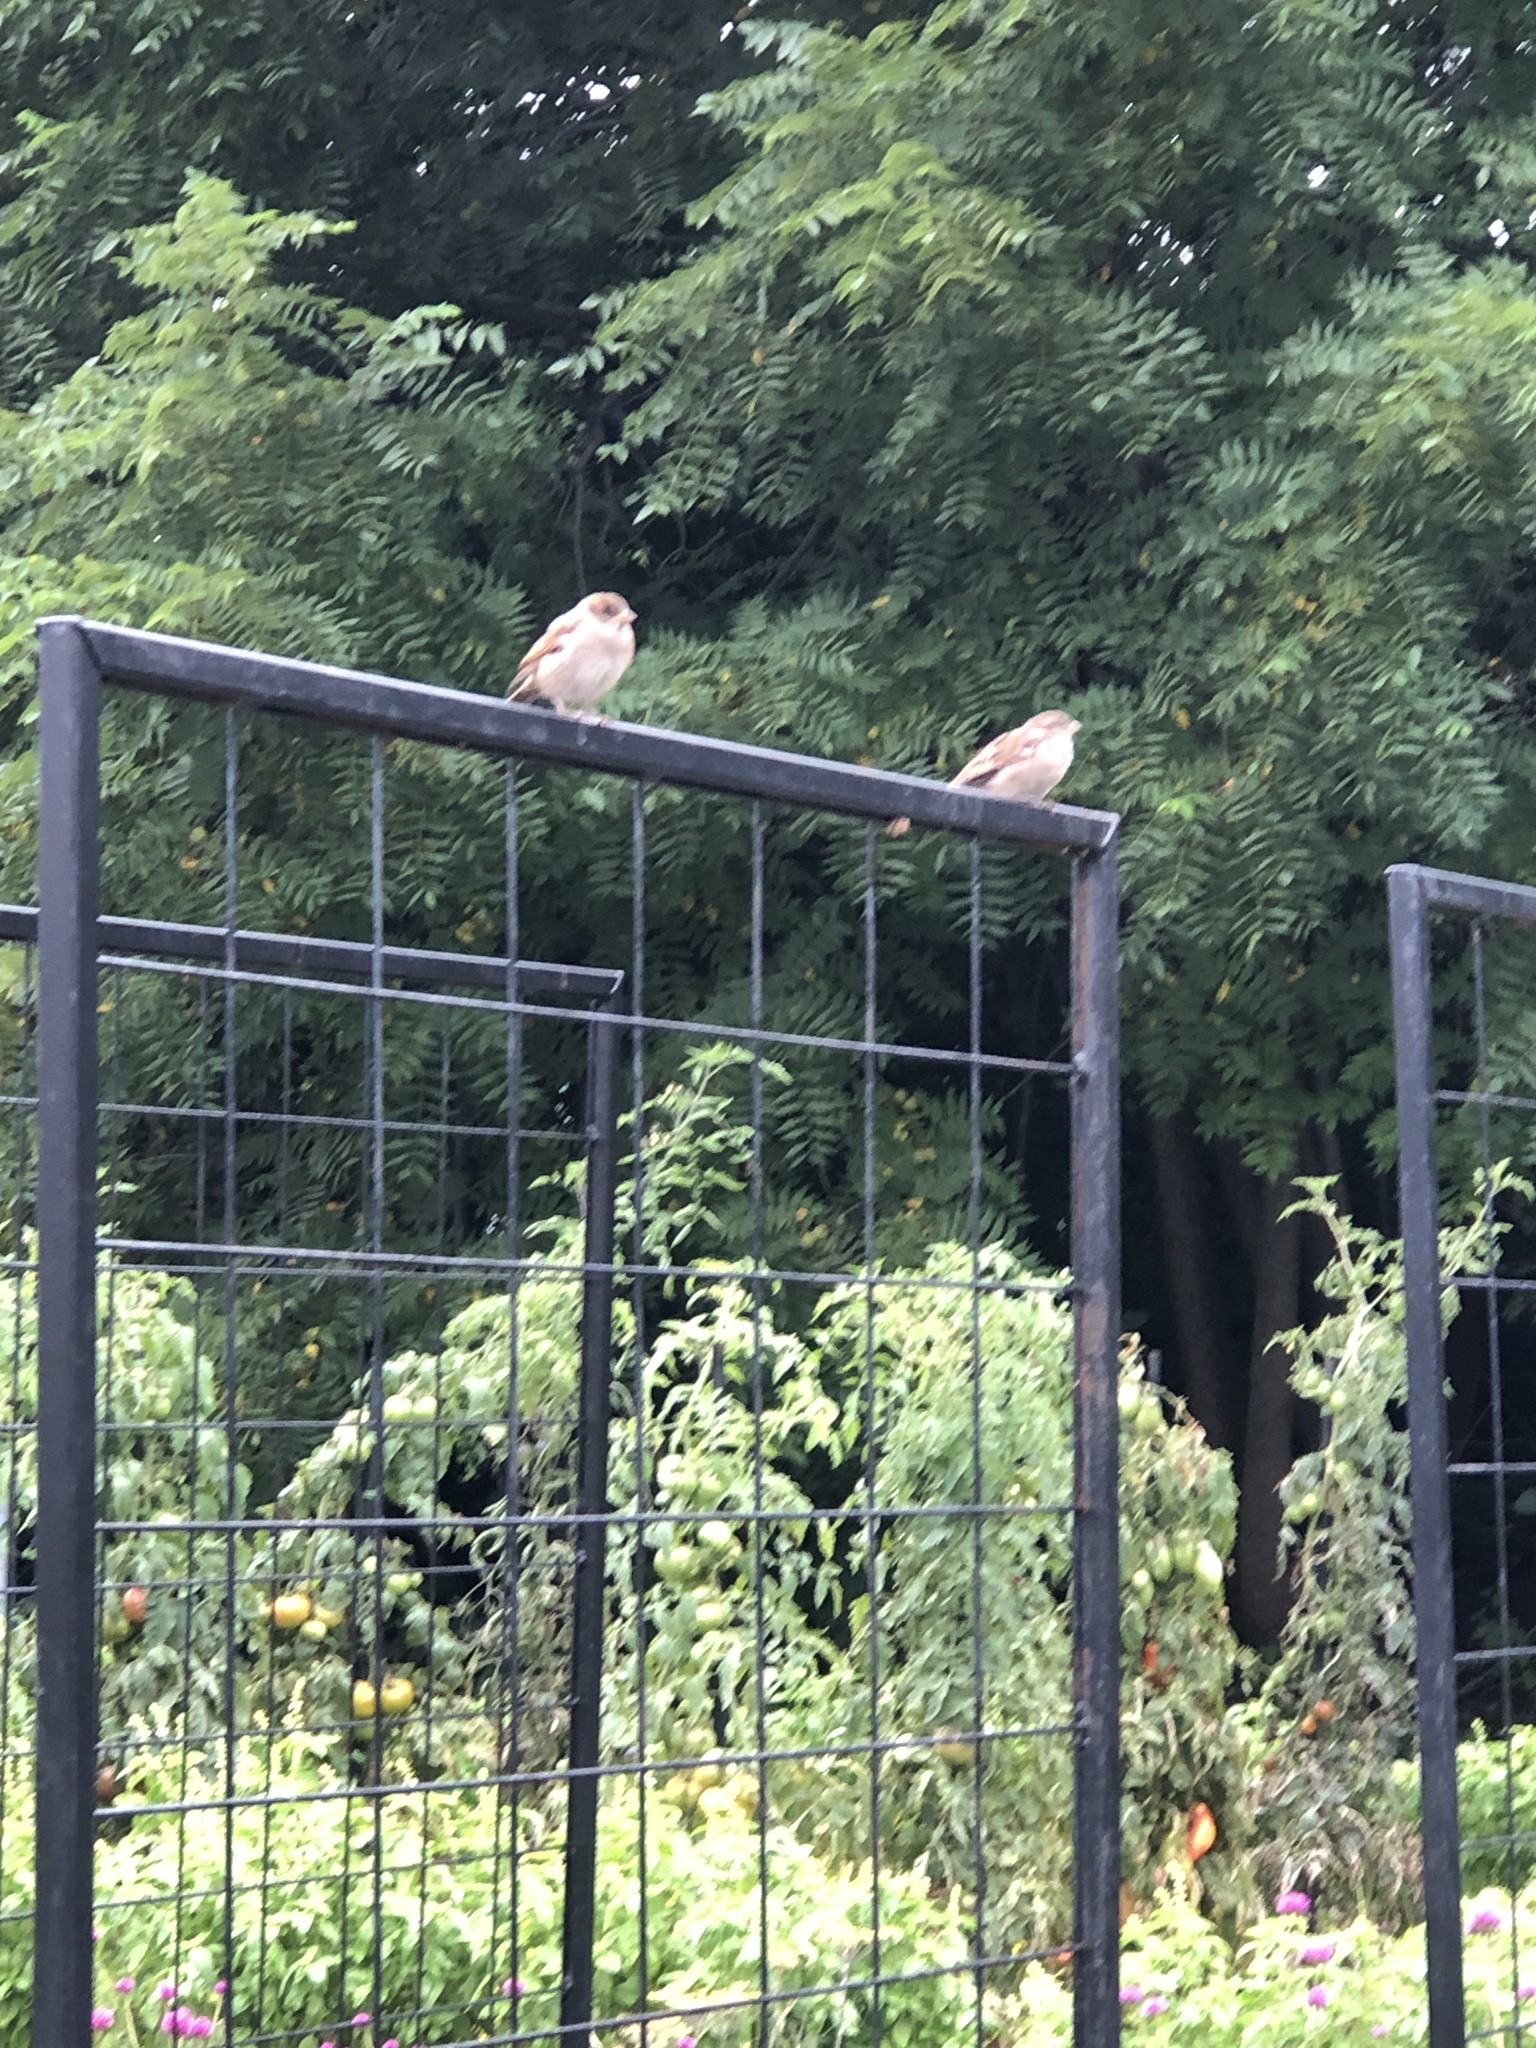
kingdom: Animalia
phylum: Chordata
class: Aves
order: Passeriformes
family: Passeridae
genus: Passer
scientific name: Passer domesticus
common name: House sparrow
